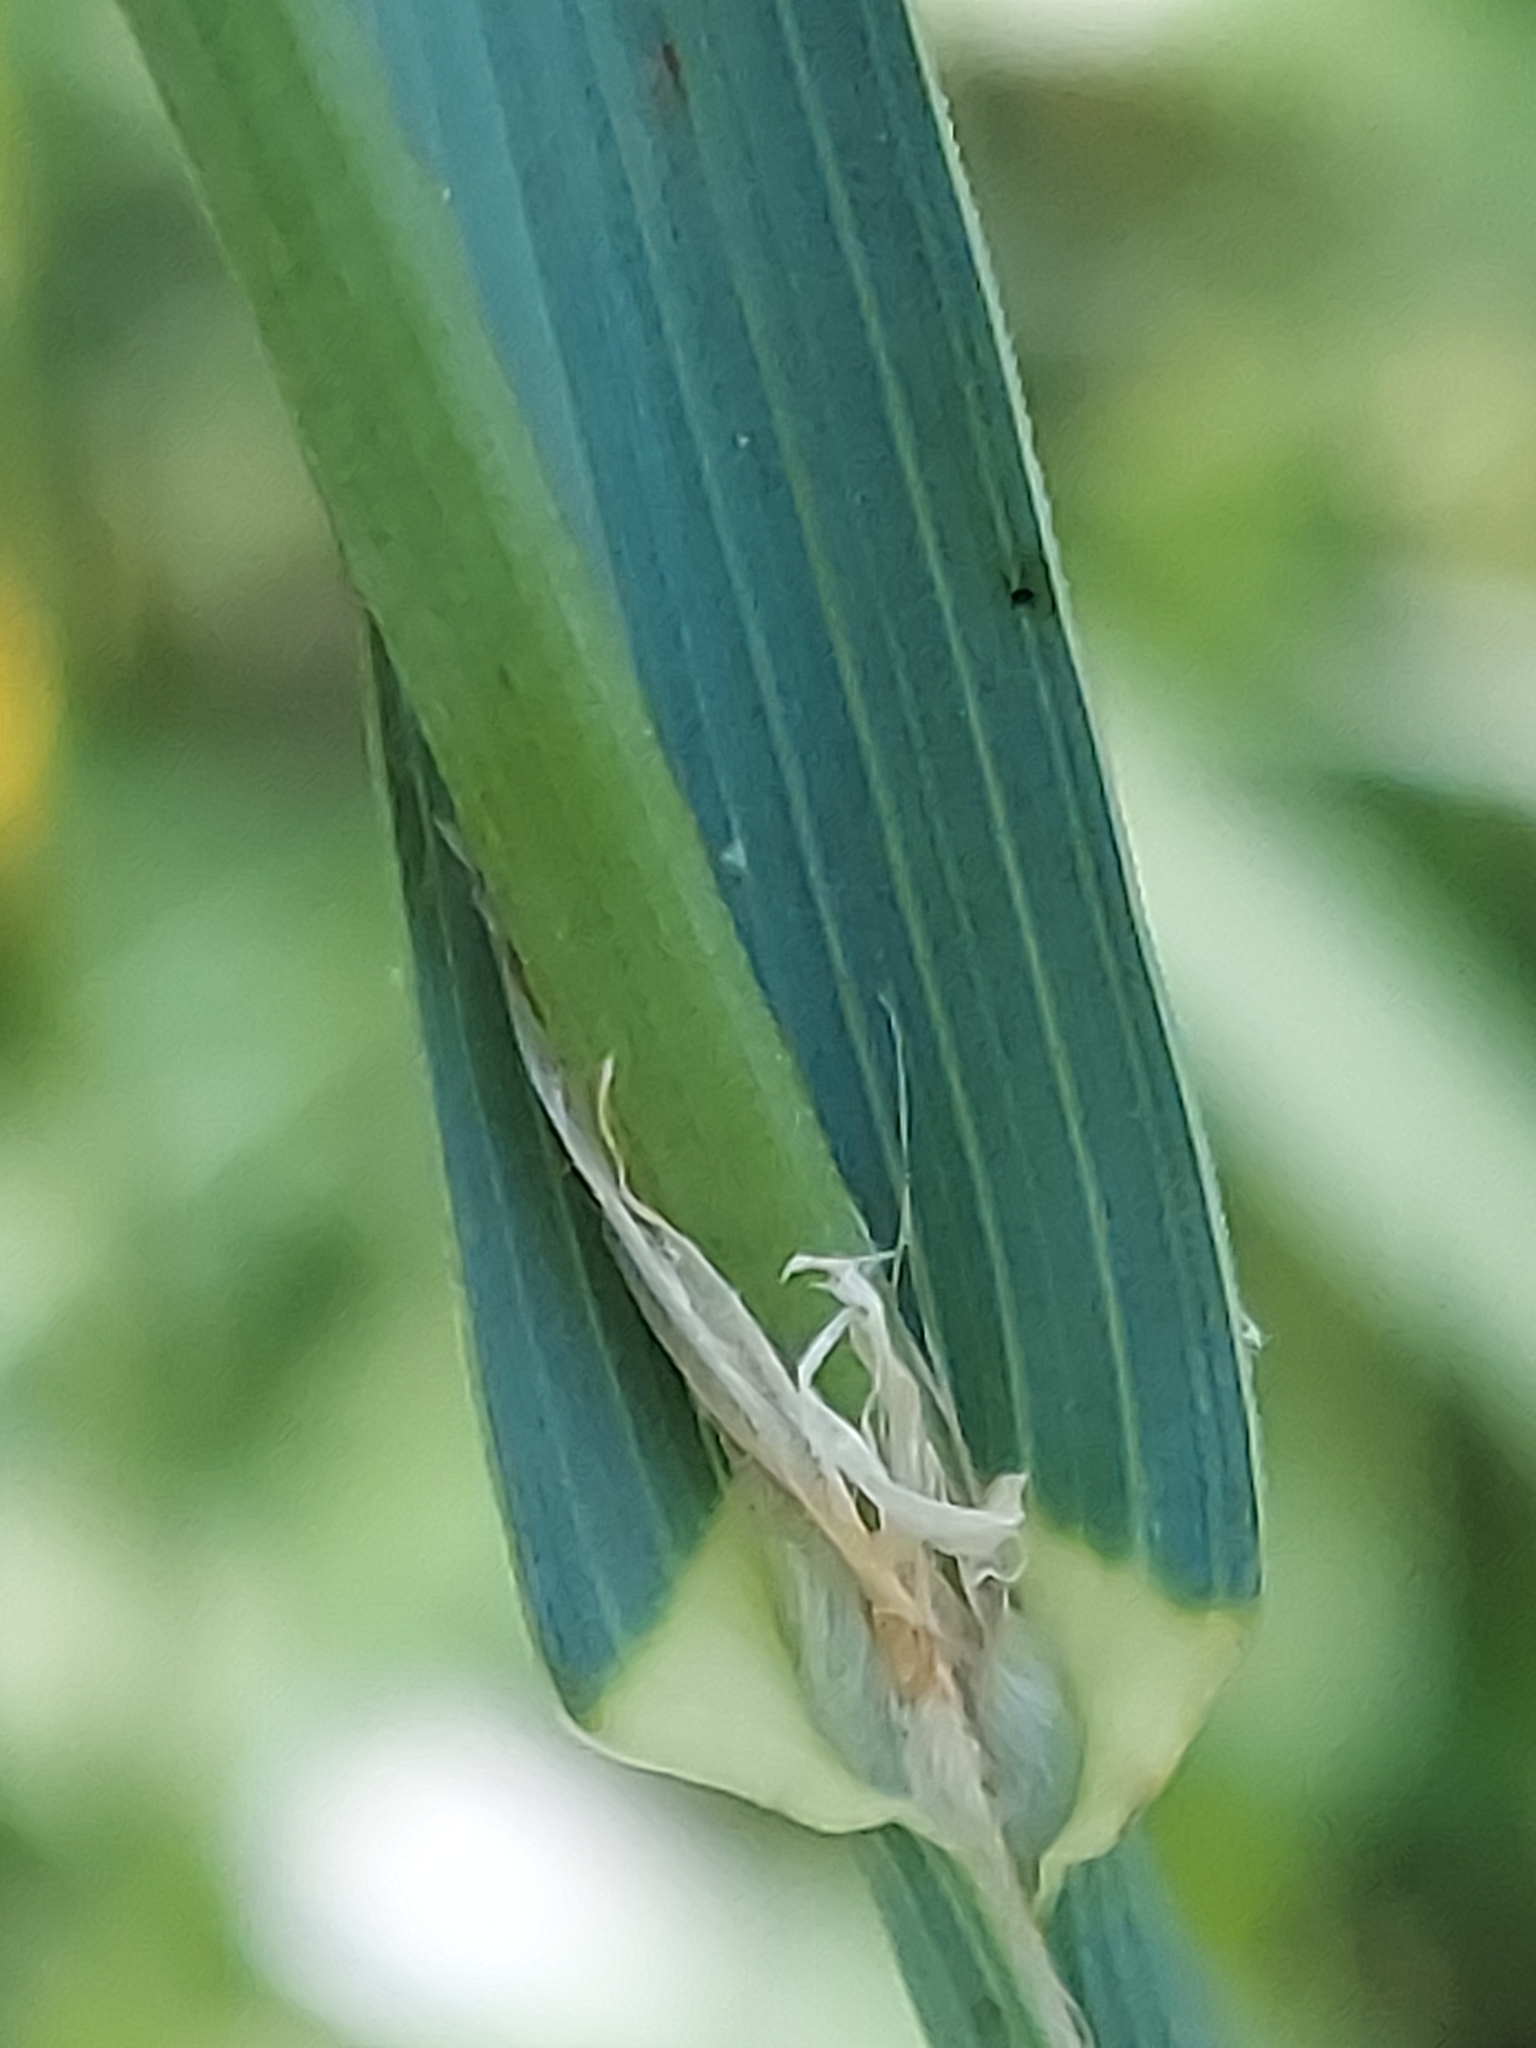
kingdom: Plantae
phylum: Tracheophyta
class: Liliopsida
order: Poales
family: Poaceae
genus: Dactylis
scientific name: Dactylis glomerata
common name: Orchardgrass
